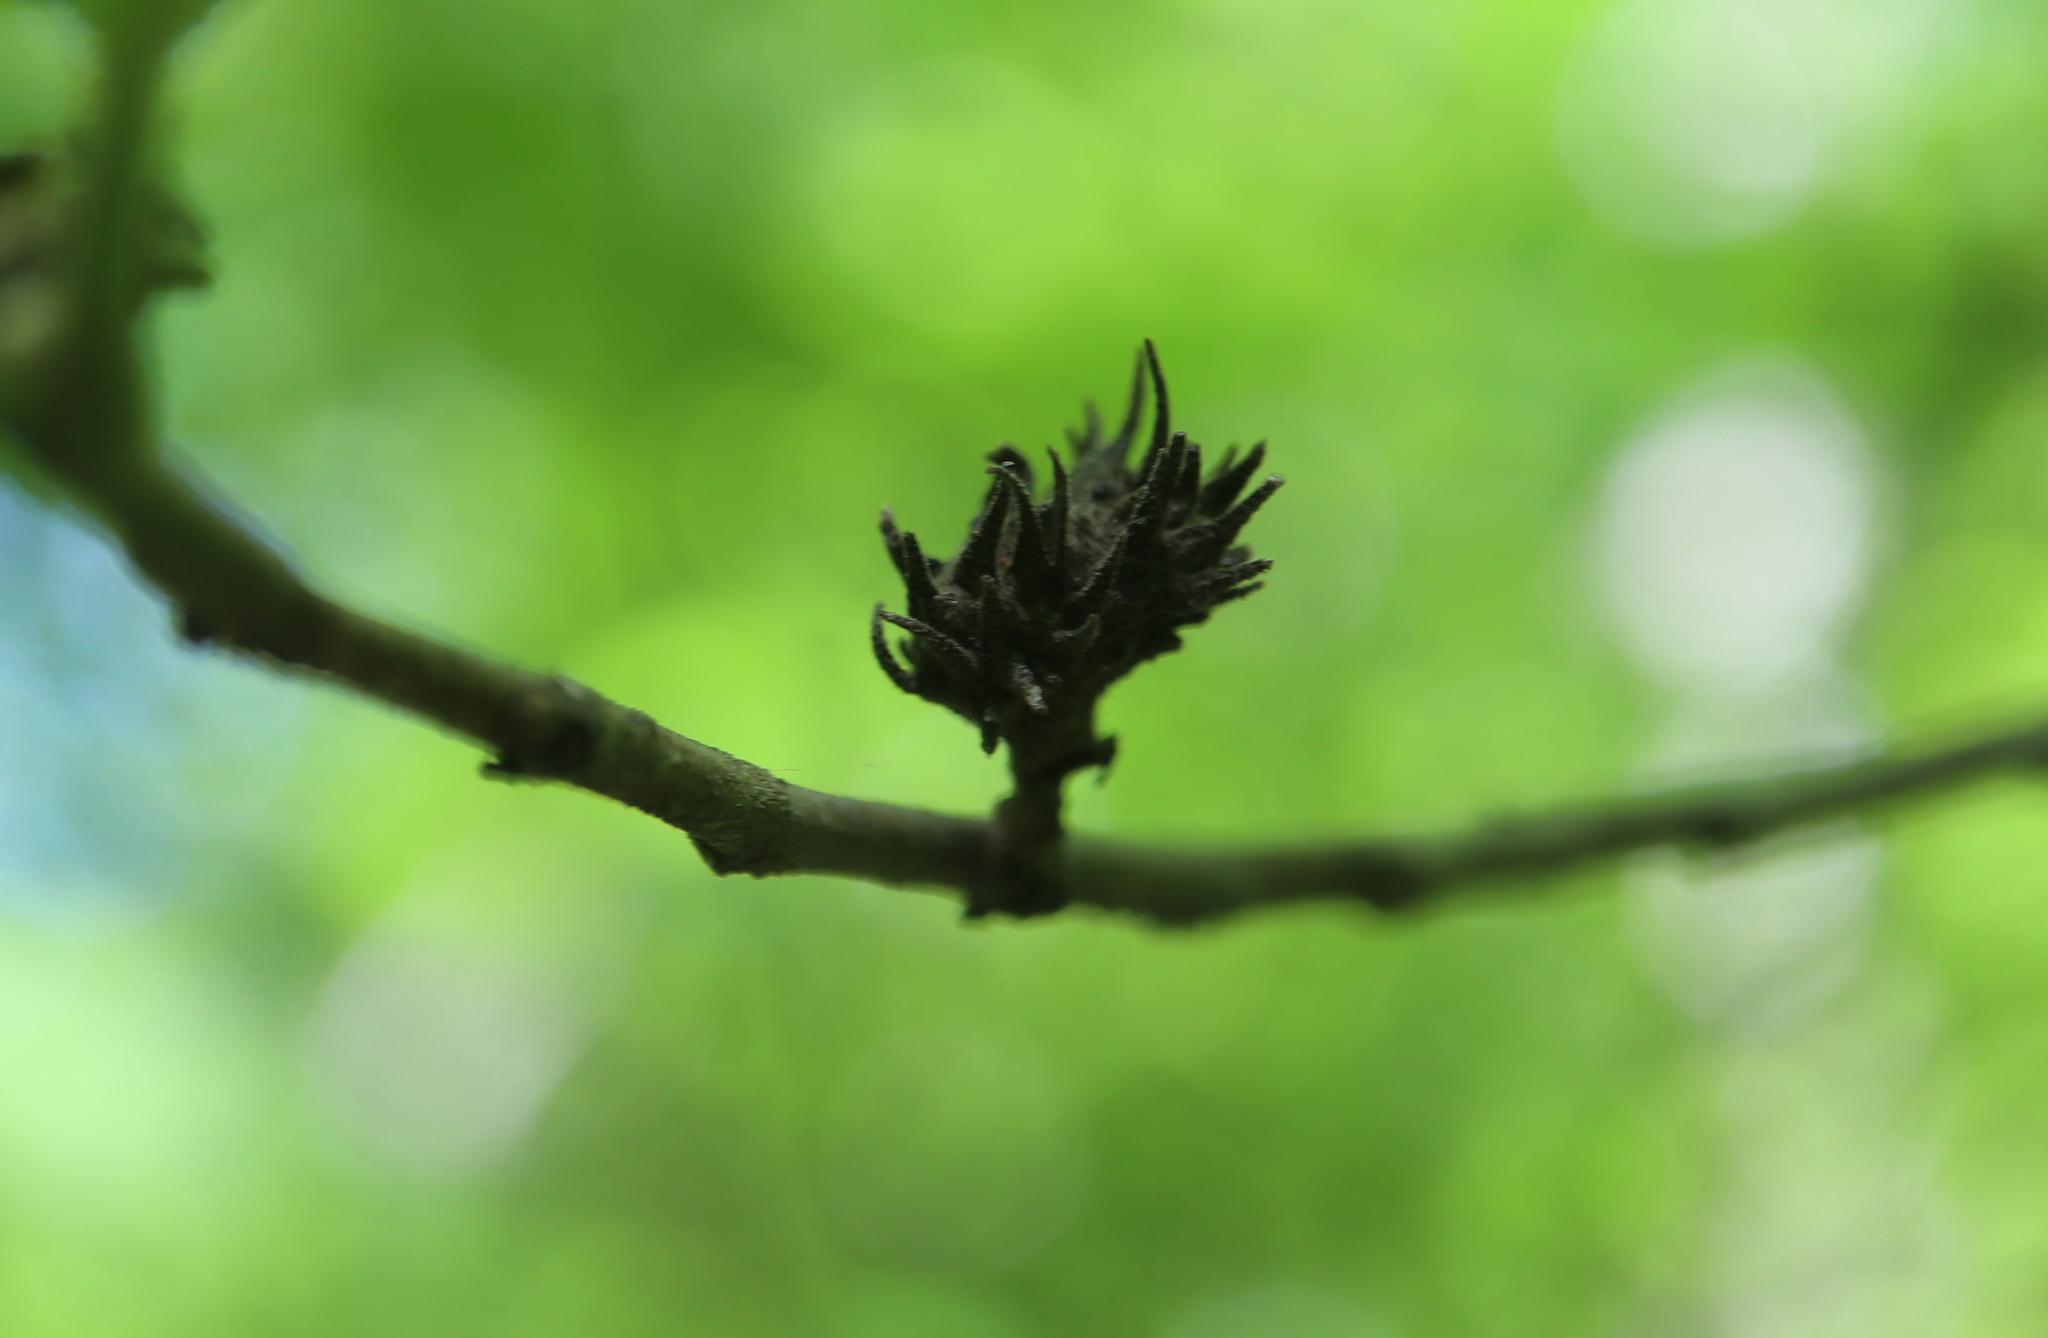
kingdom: Animalia
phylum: Arthropoda
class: Insecta
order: Hemiptera
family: Aphididae
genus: Hamamelistes
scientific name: Hamamelistes spinosus
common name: Witch hazel gall aphid
